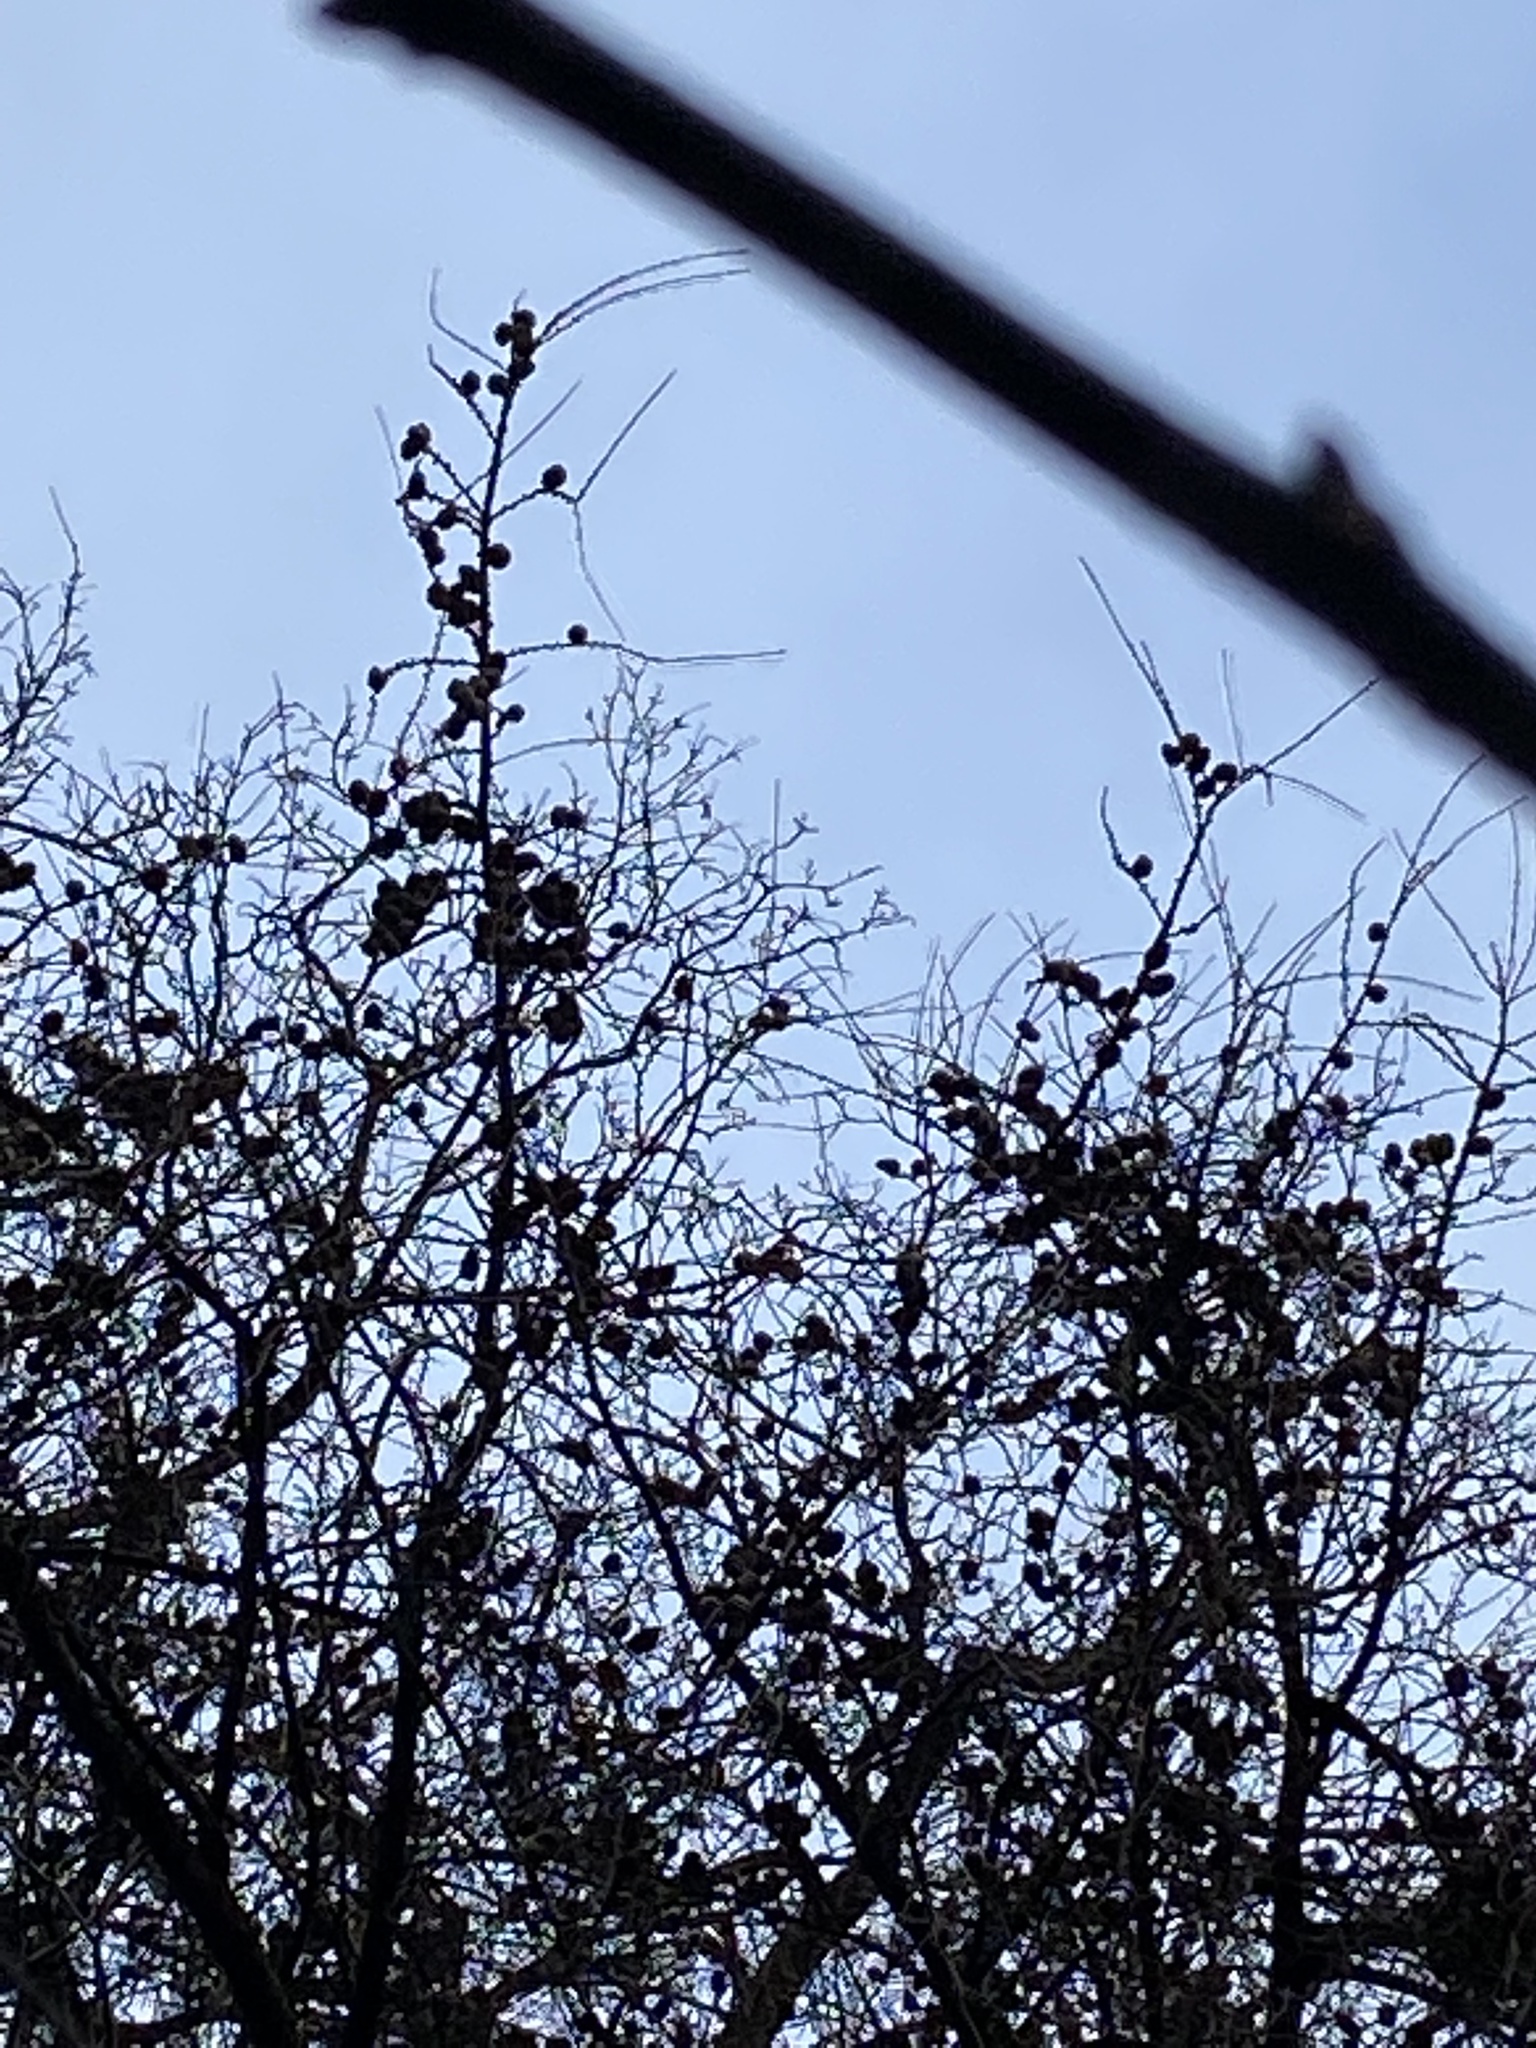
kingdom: Plantae
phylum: Tracheophyta
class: Pinopsida
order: Pinales
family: Pinaceae
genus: Larix
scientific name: Larix decidua
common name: European larch
